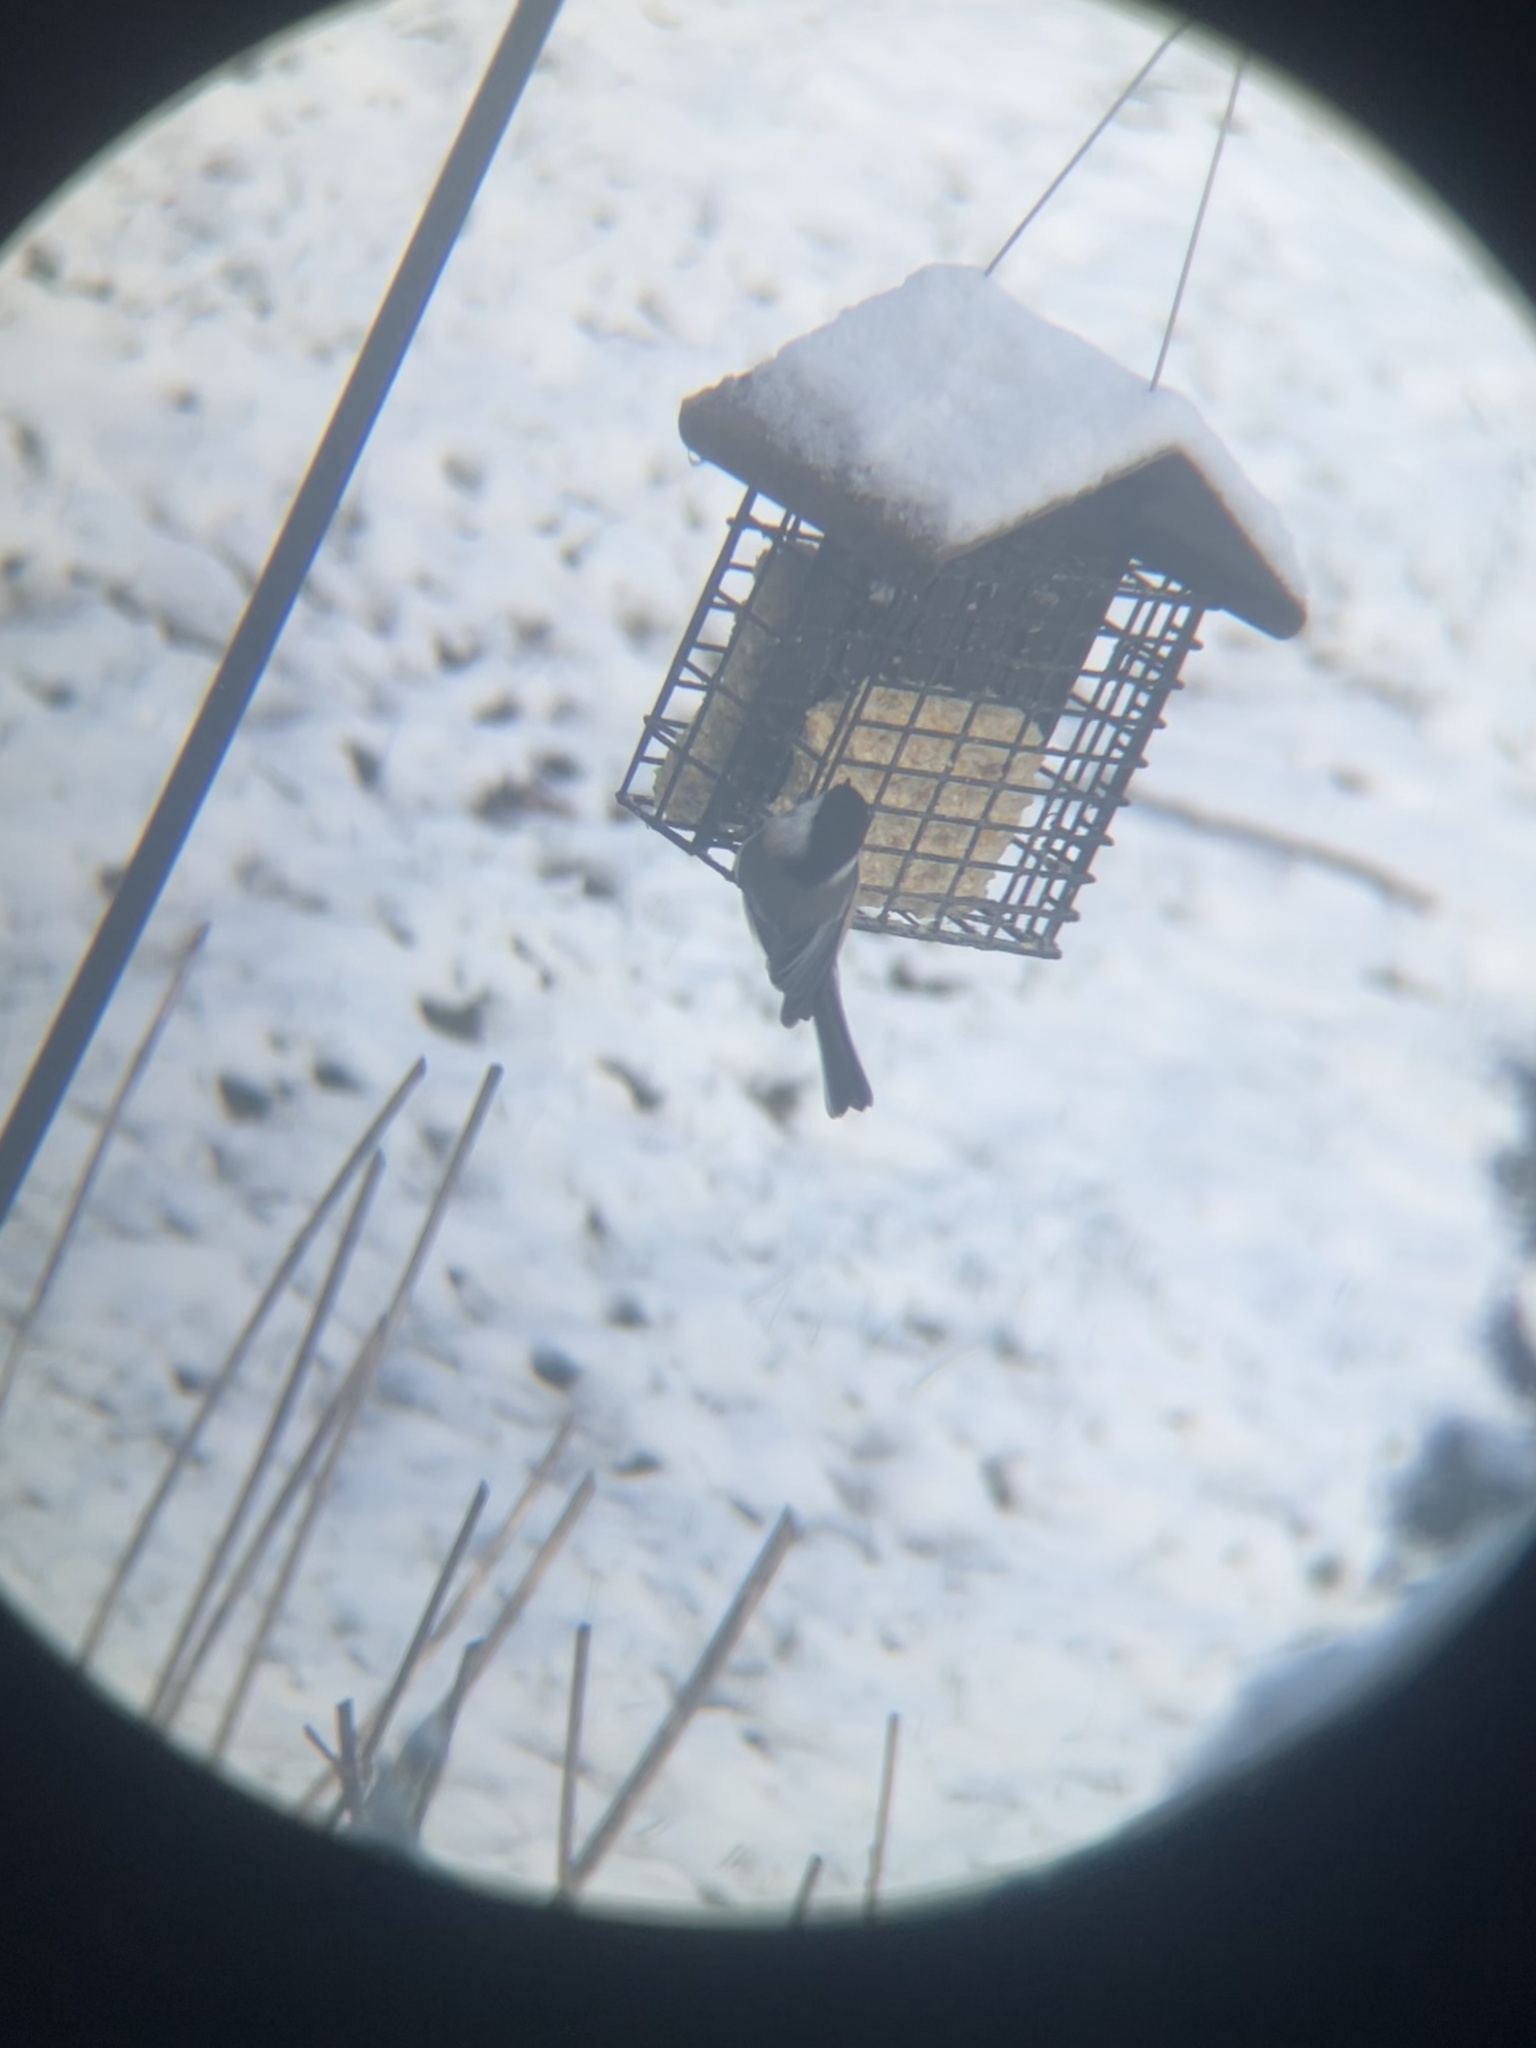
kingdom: Animalia
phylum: Chordata
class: Aves
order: Passeriformes
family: Paridae
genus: Poecile
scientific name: Poecile atricapillus
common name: Black-capped chickadee
